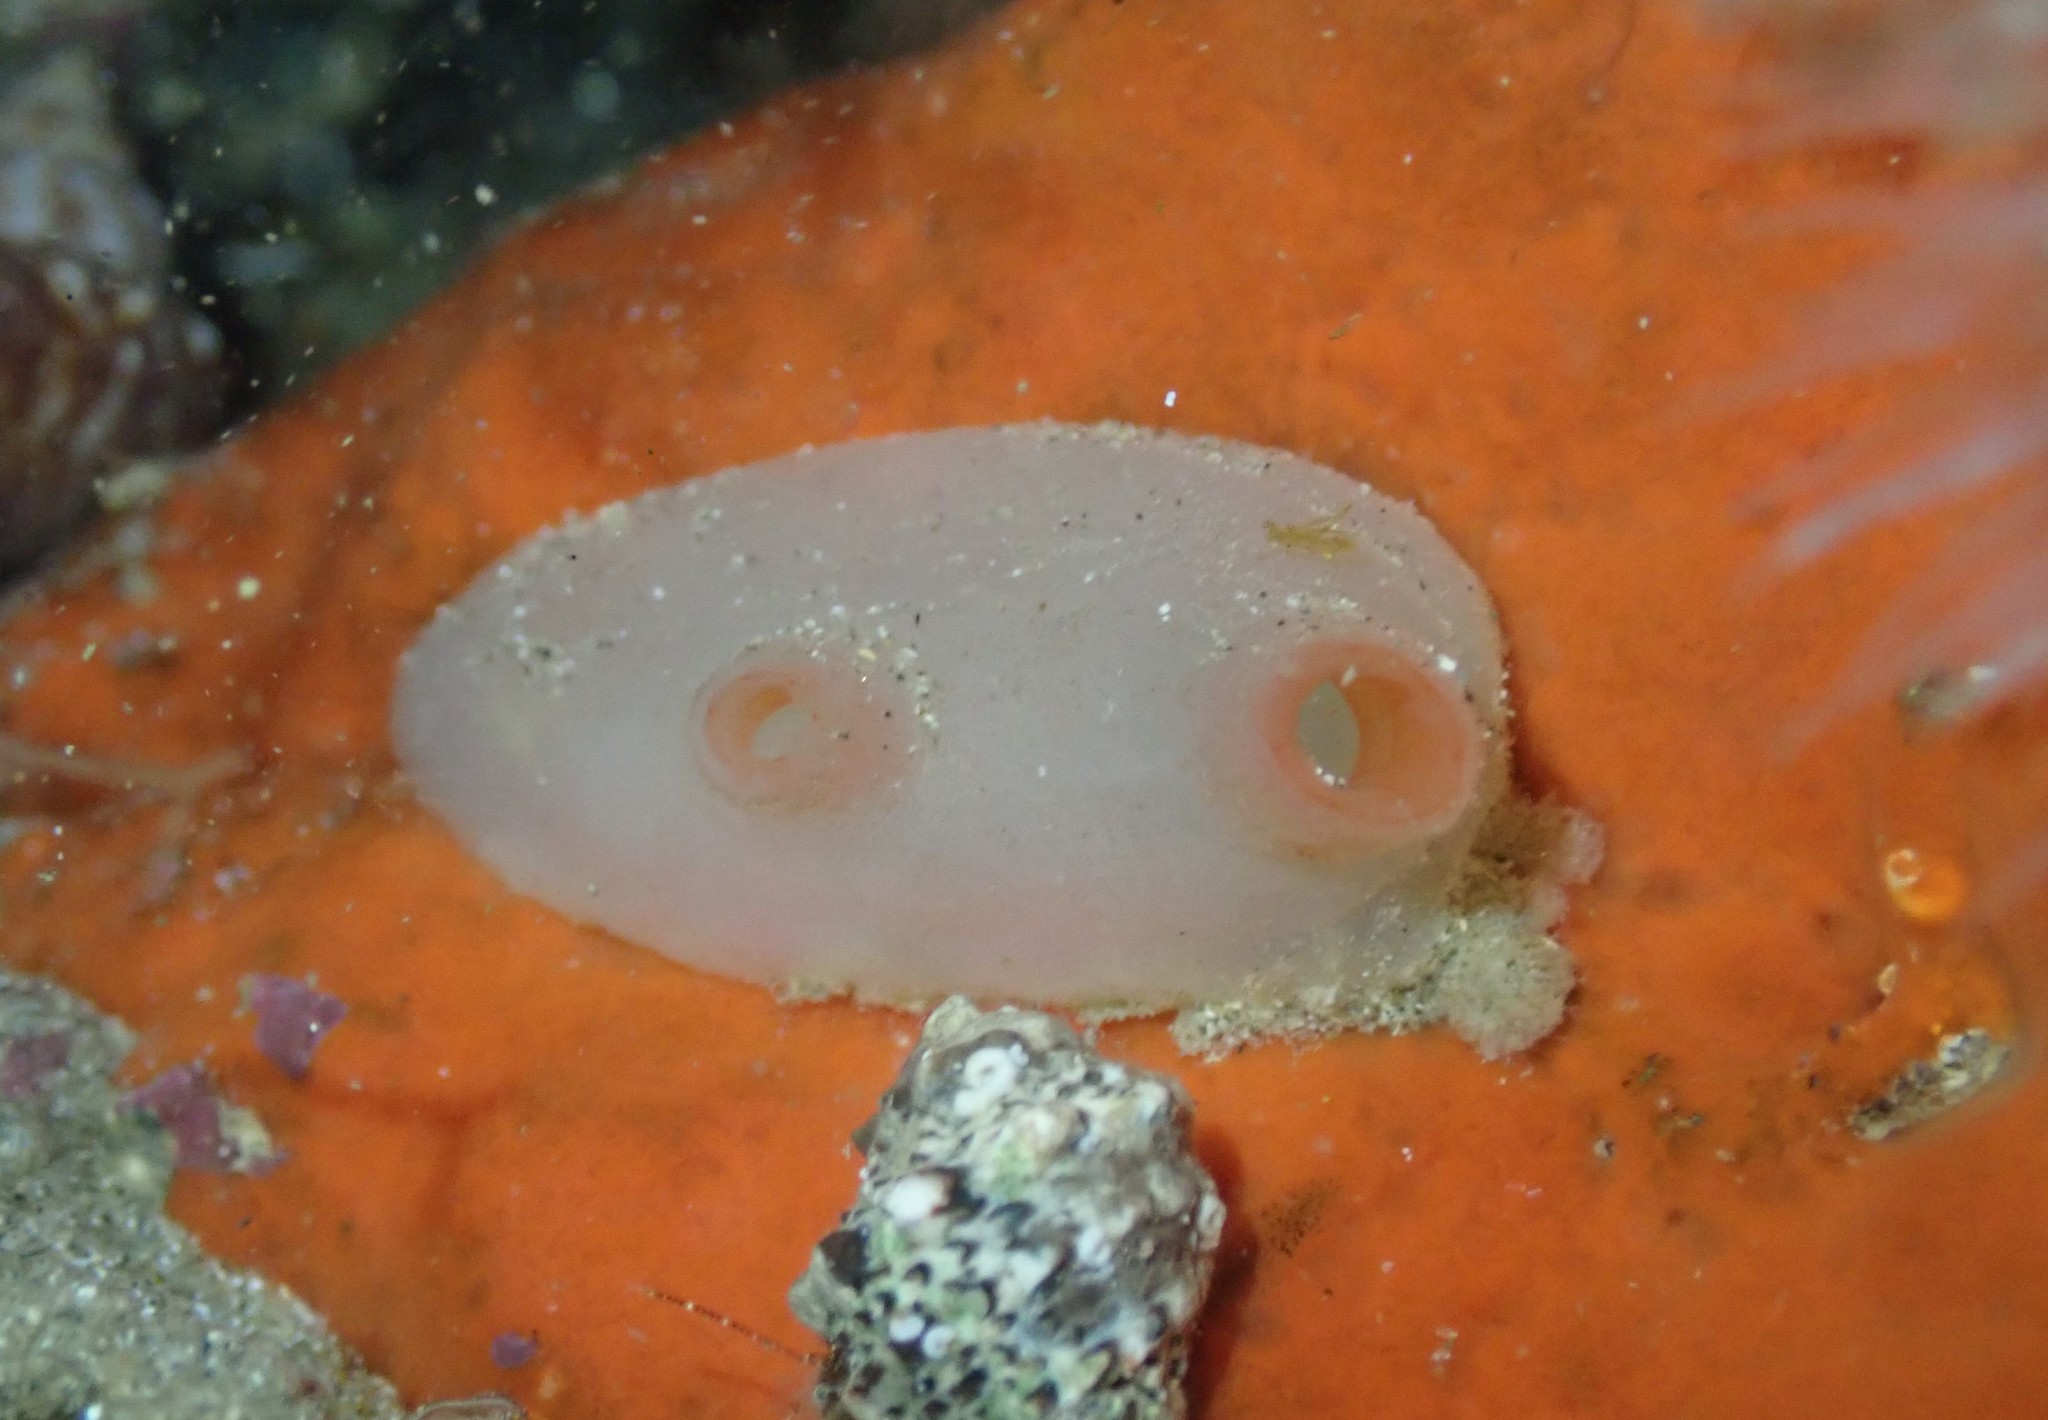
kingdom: Animalia
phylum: Chordata
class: Ascidiacea
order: Phlebobranchia
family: Corellidae
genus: Corella
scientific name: Corella eumyota
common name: Orange-tipped sea squirt
